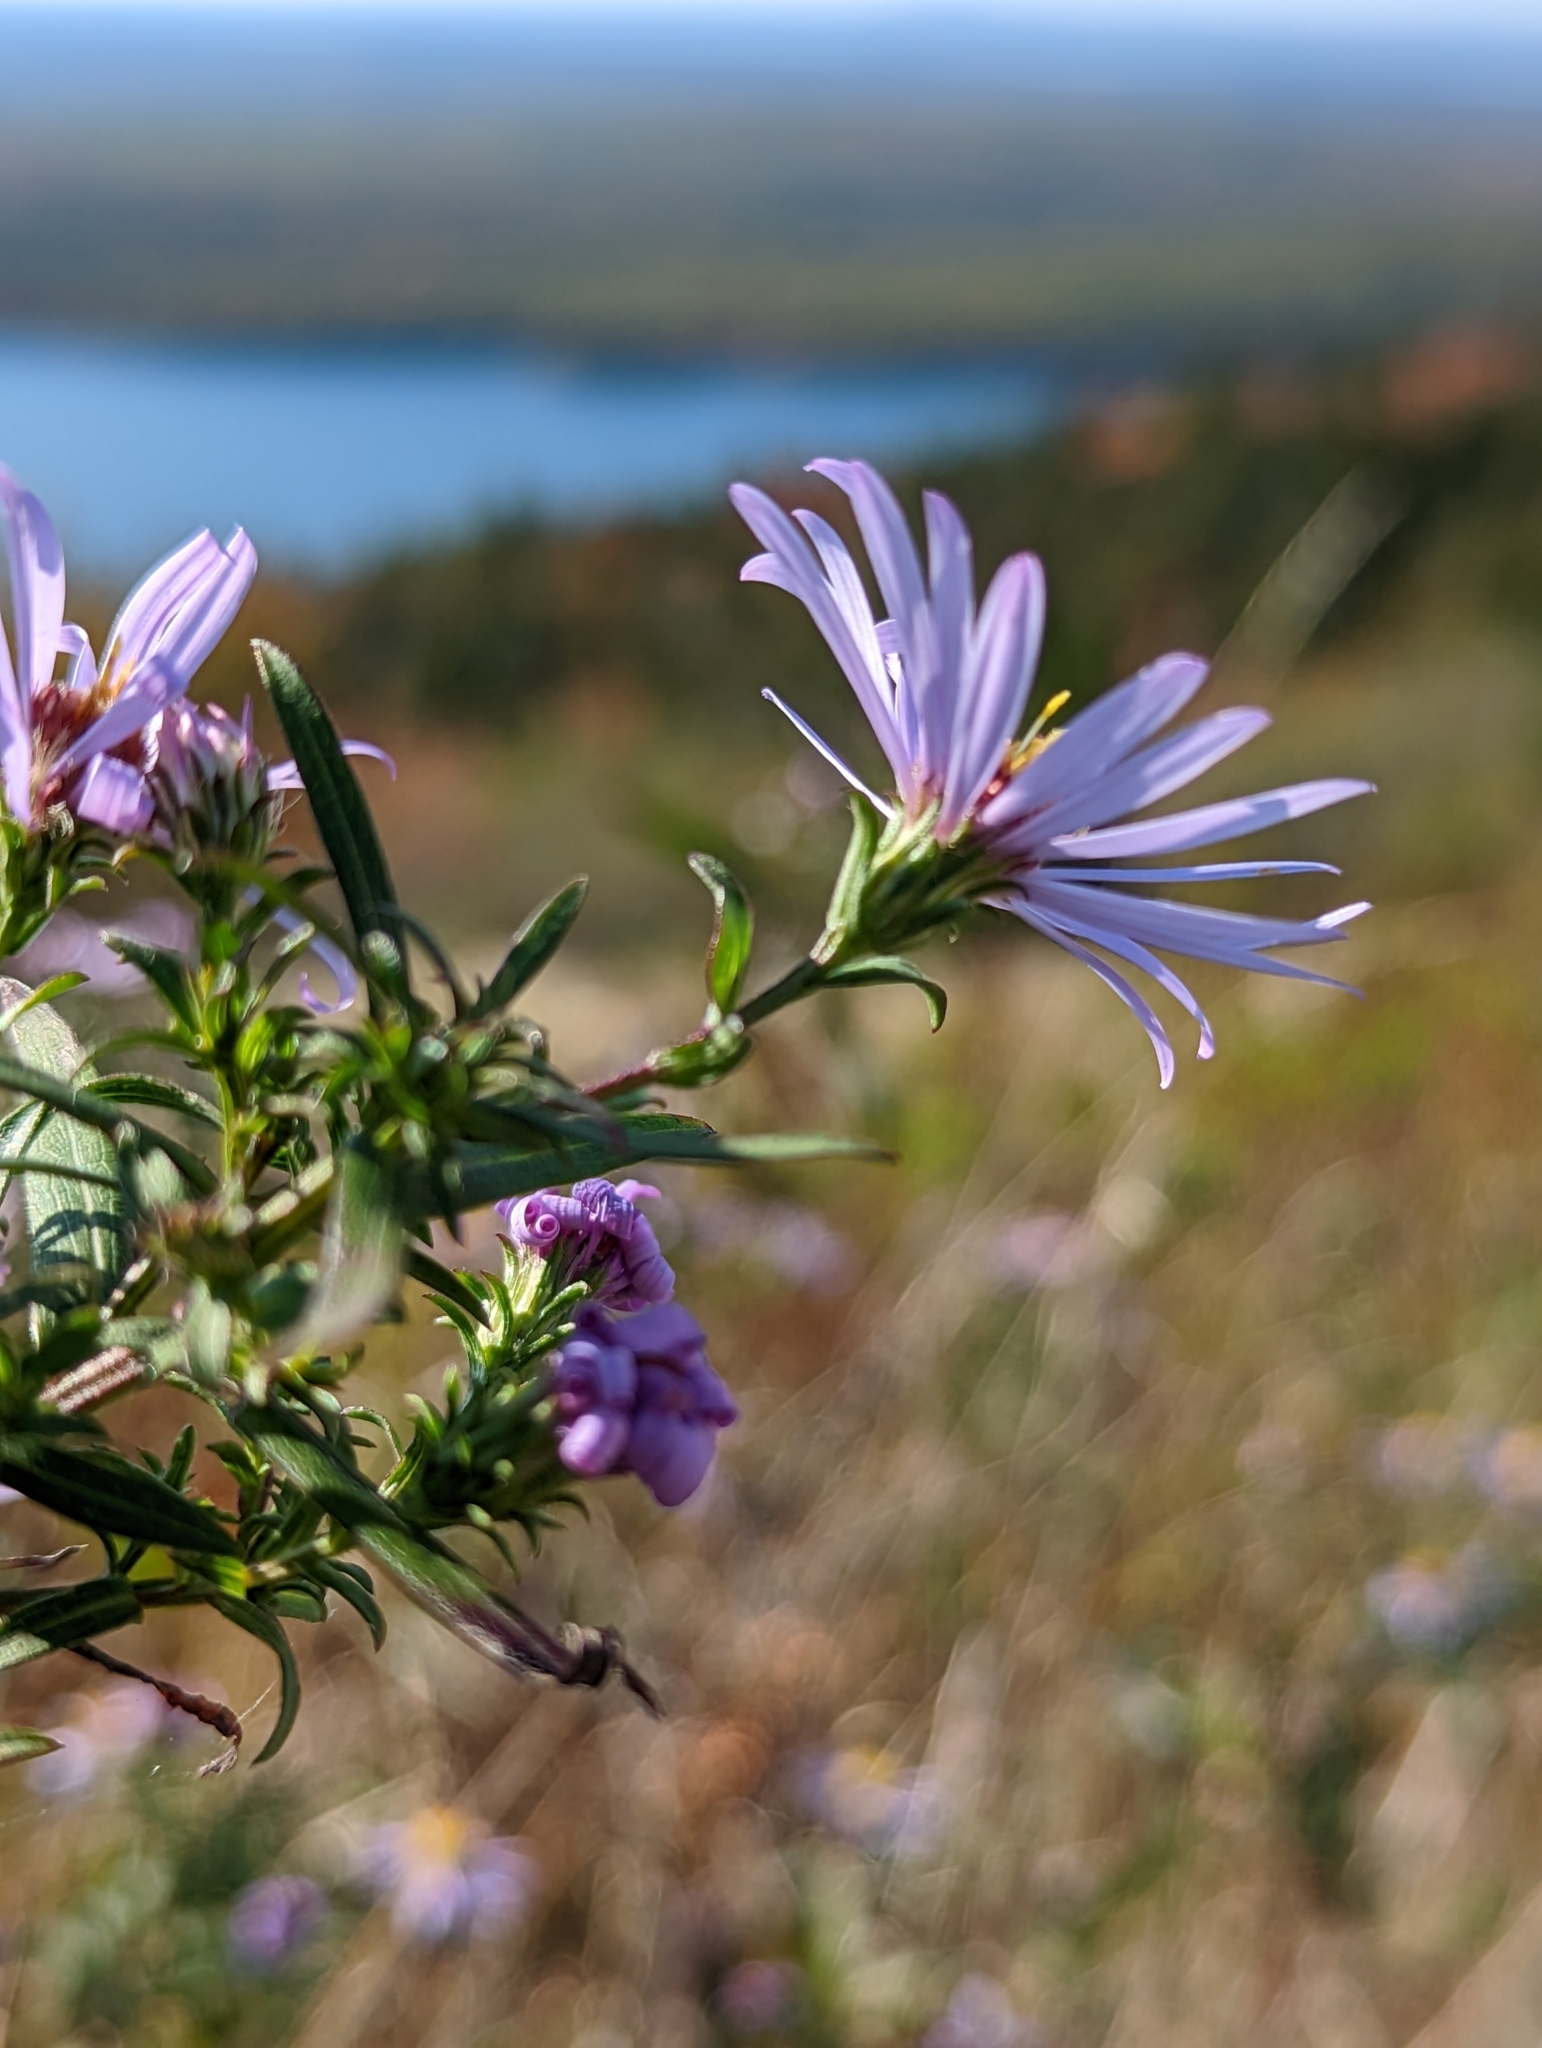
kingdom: Plantae
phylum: Tracheophyta
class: Magnoliopsida
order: Asterales
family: Asteraceae
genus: Symphyotrichum
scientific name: Symphyotrichum novi-belgii
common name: Michaelmas daisy
